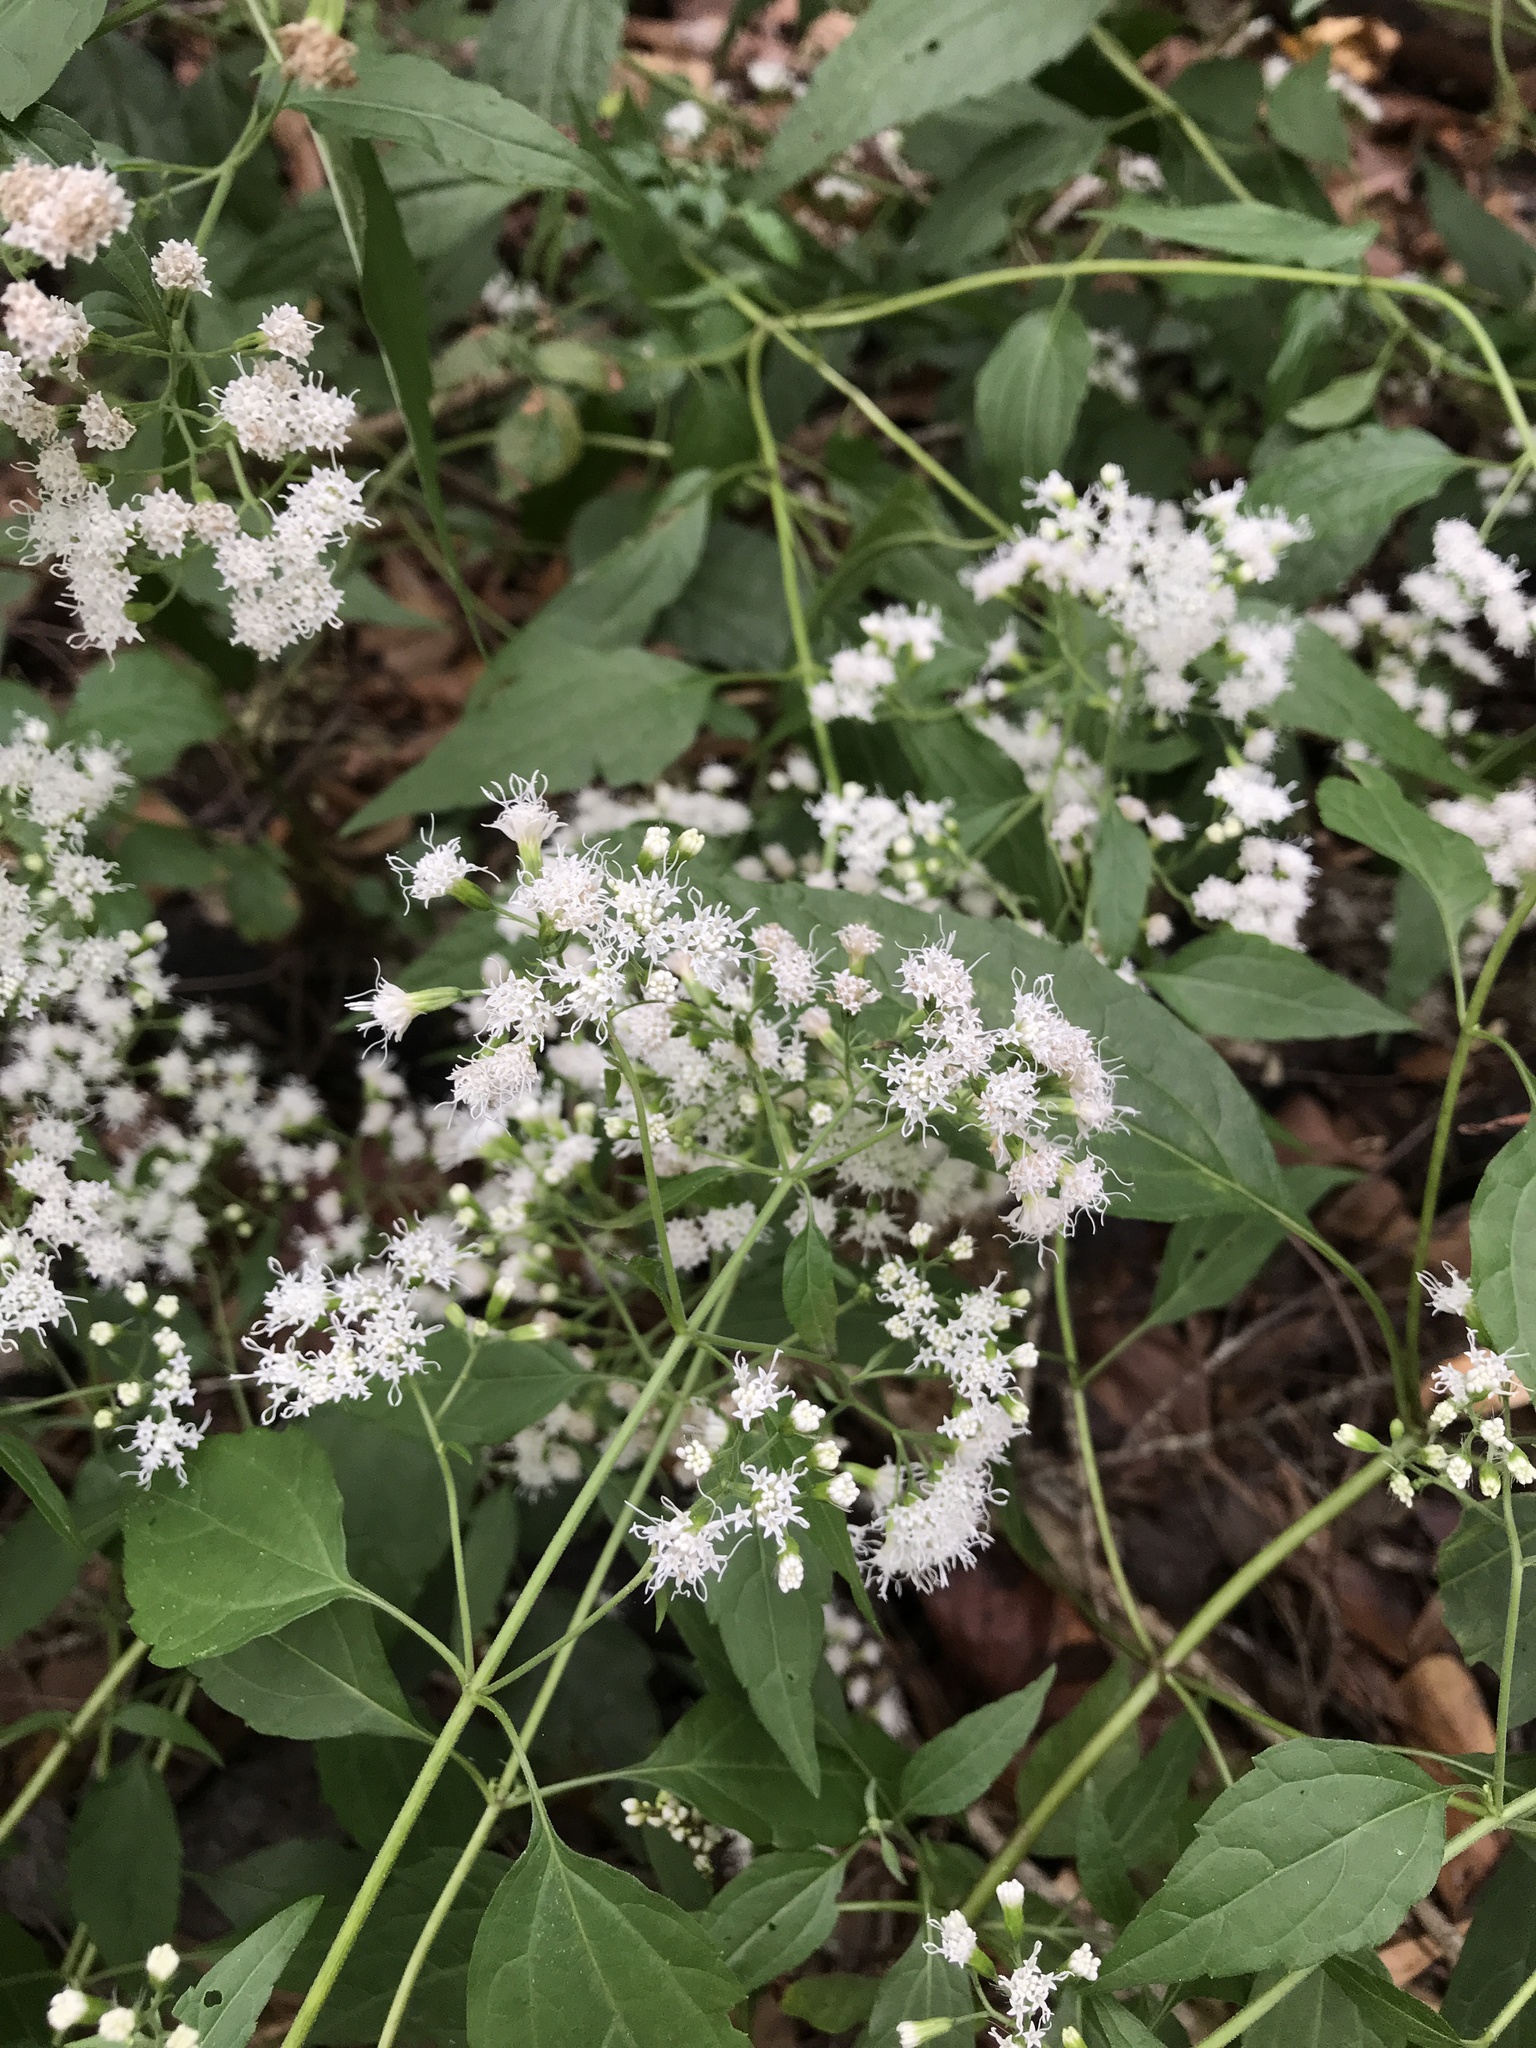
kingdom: Plantae
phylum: Tracheophyta
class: Magnoliopsida
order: Asterales
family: Asteraceae
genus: Ageratina
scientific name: Ageratina altissima
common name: White snakeroot
